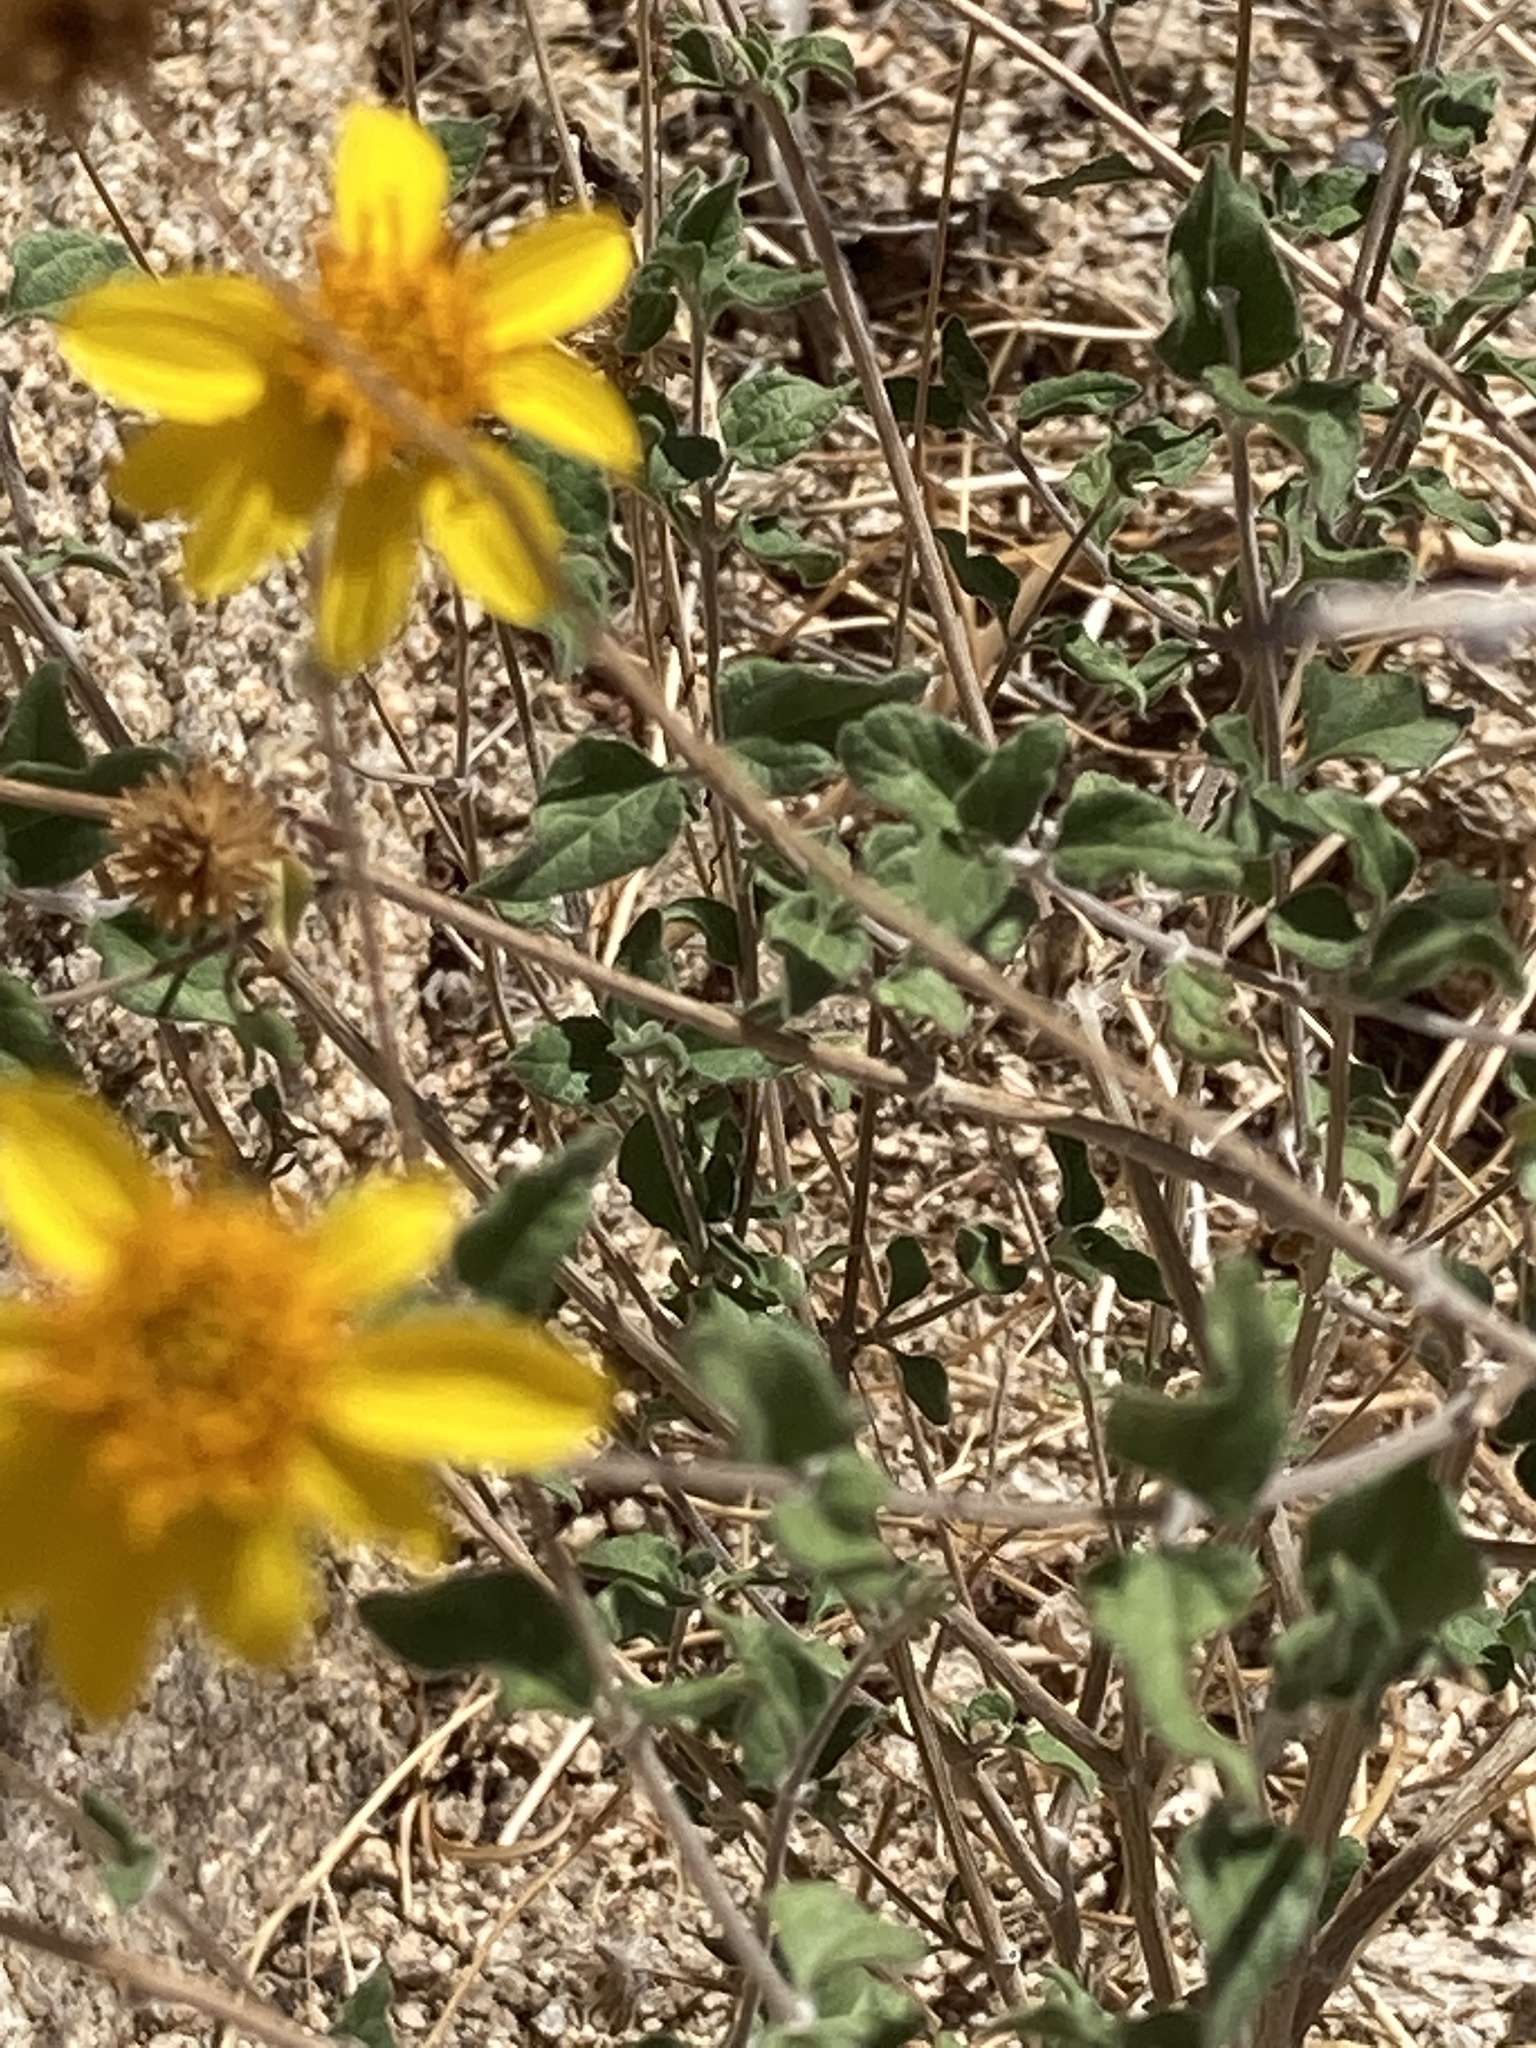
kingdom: Plantae
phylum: Tracheophyta
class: Magnoliopsida
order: Asterales
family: Asteraceae
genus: Bahiopsis
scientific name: Bahiopsis parishii
